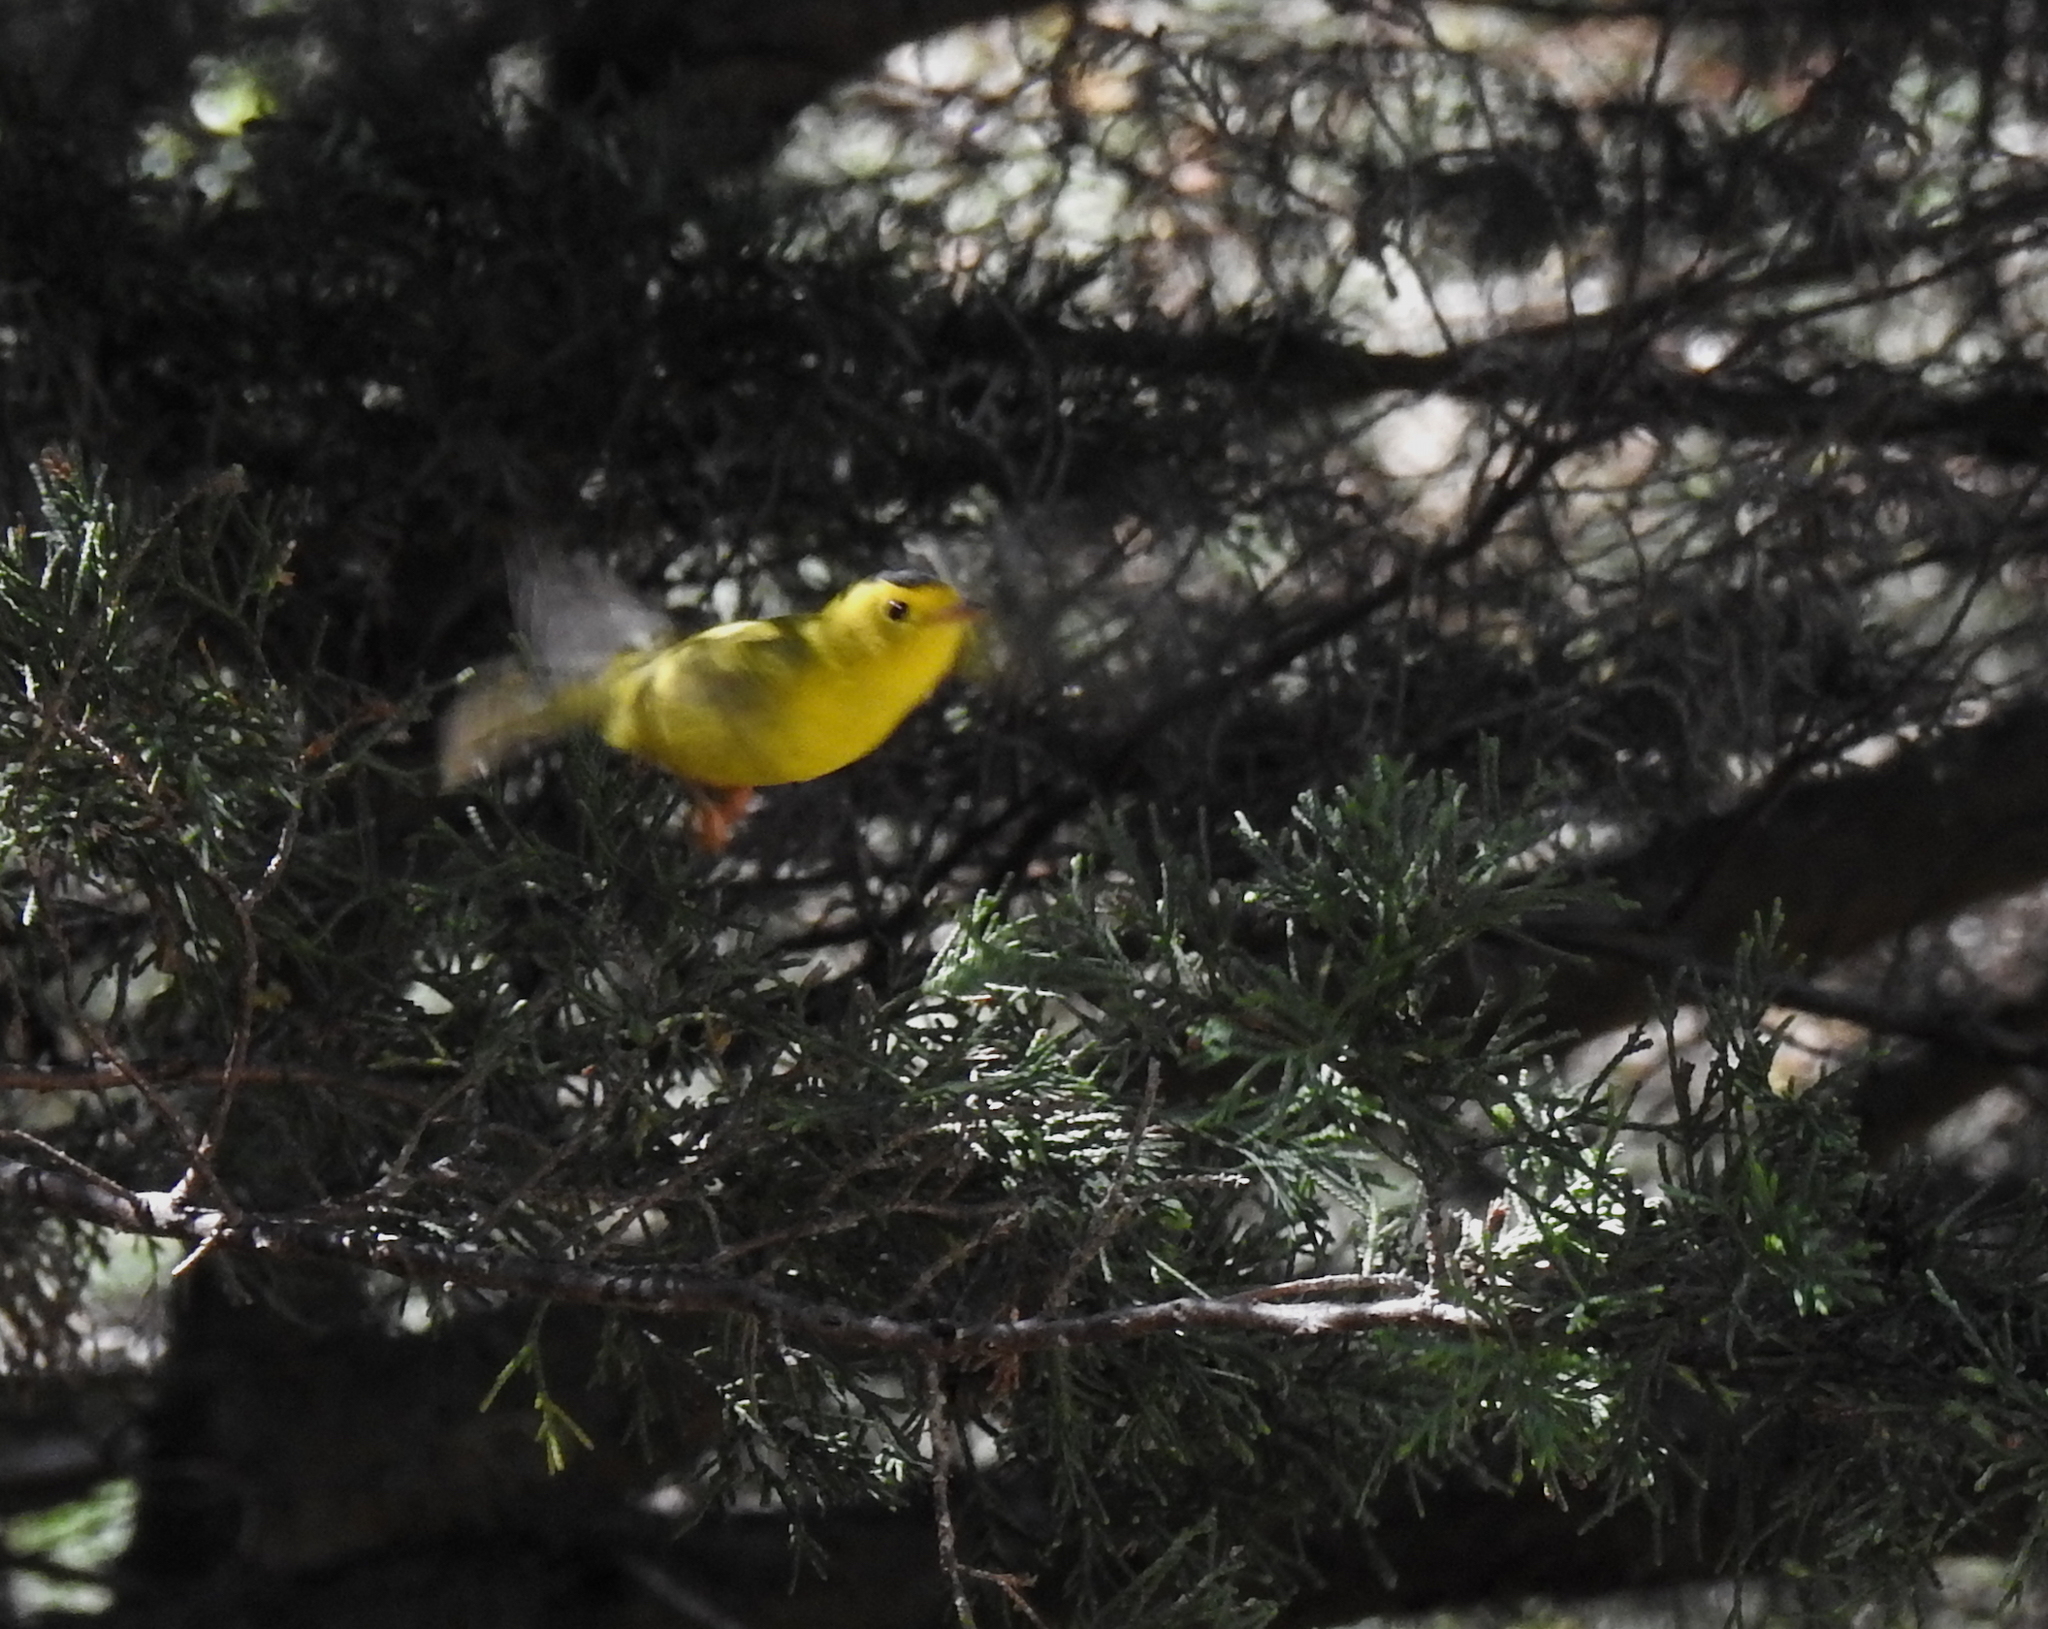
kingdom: Animalia
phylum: Chordata
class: Aves
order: Passeriformes
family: Parulidae
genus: Cardellina
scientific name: Cardellina pusilla
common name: Wilson's warbler
